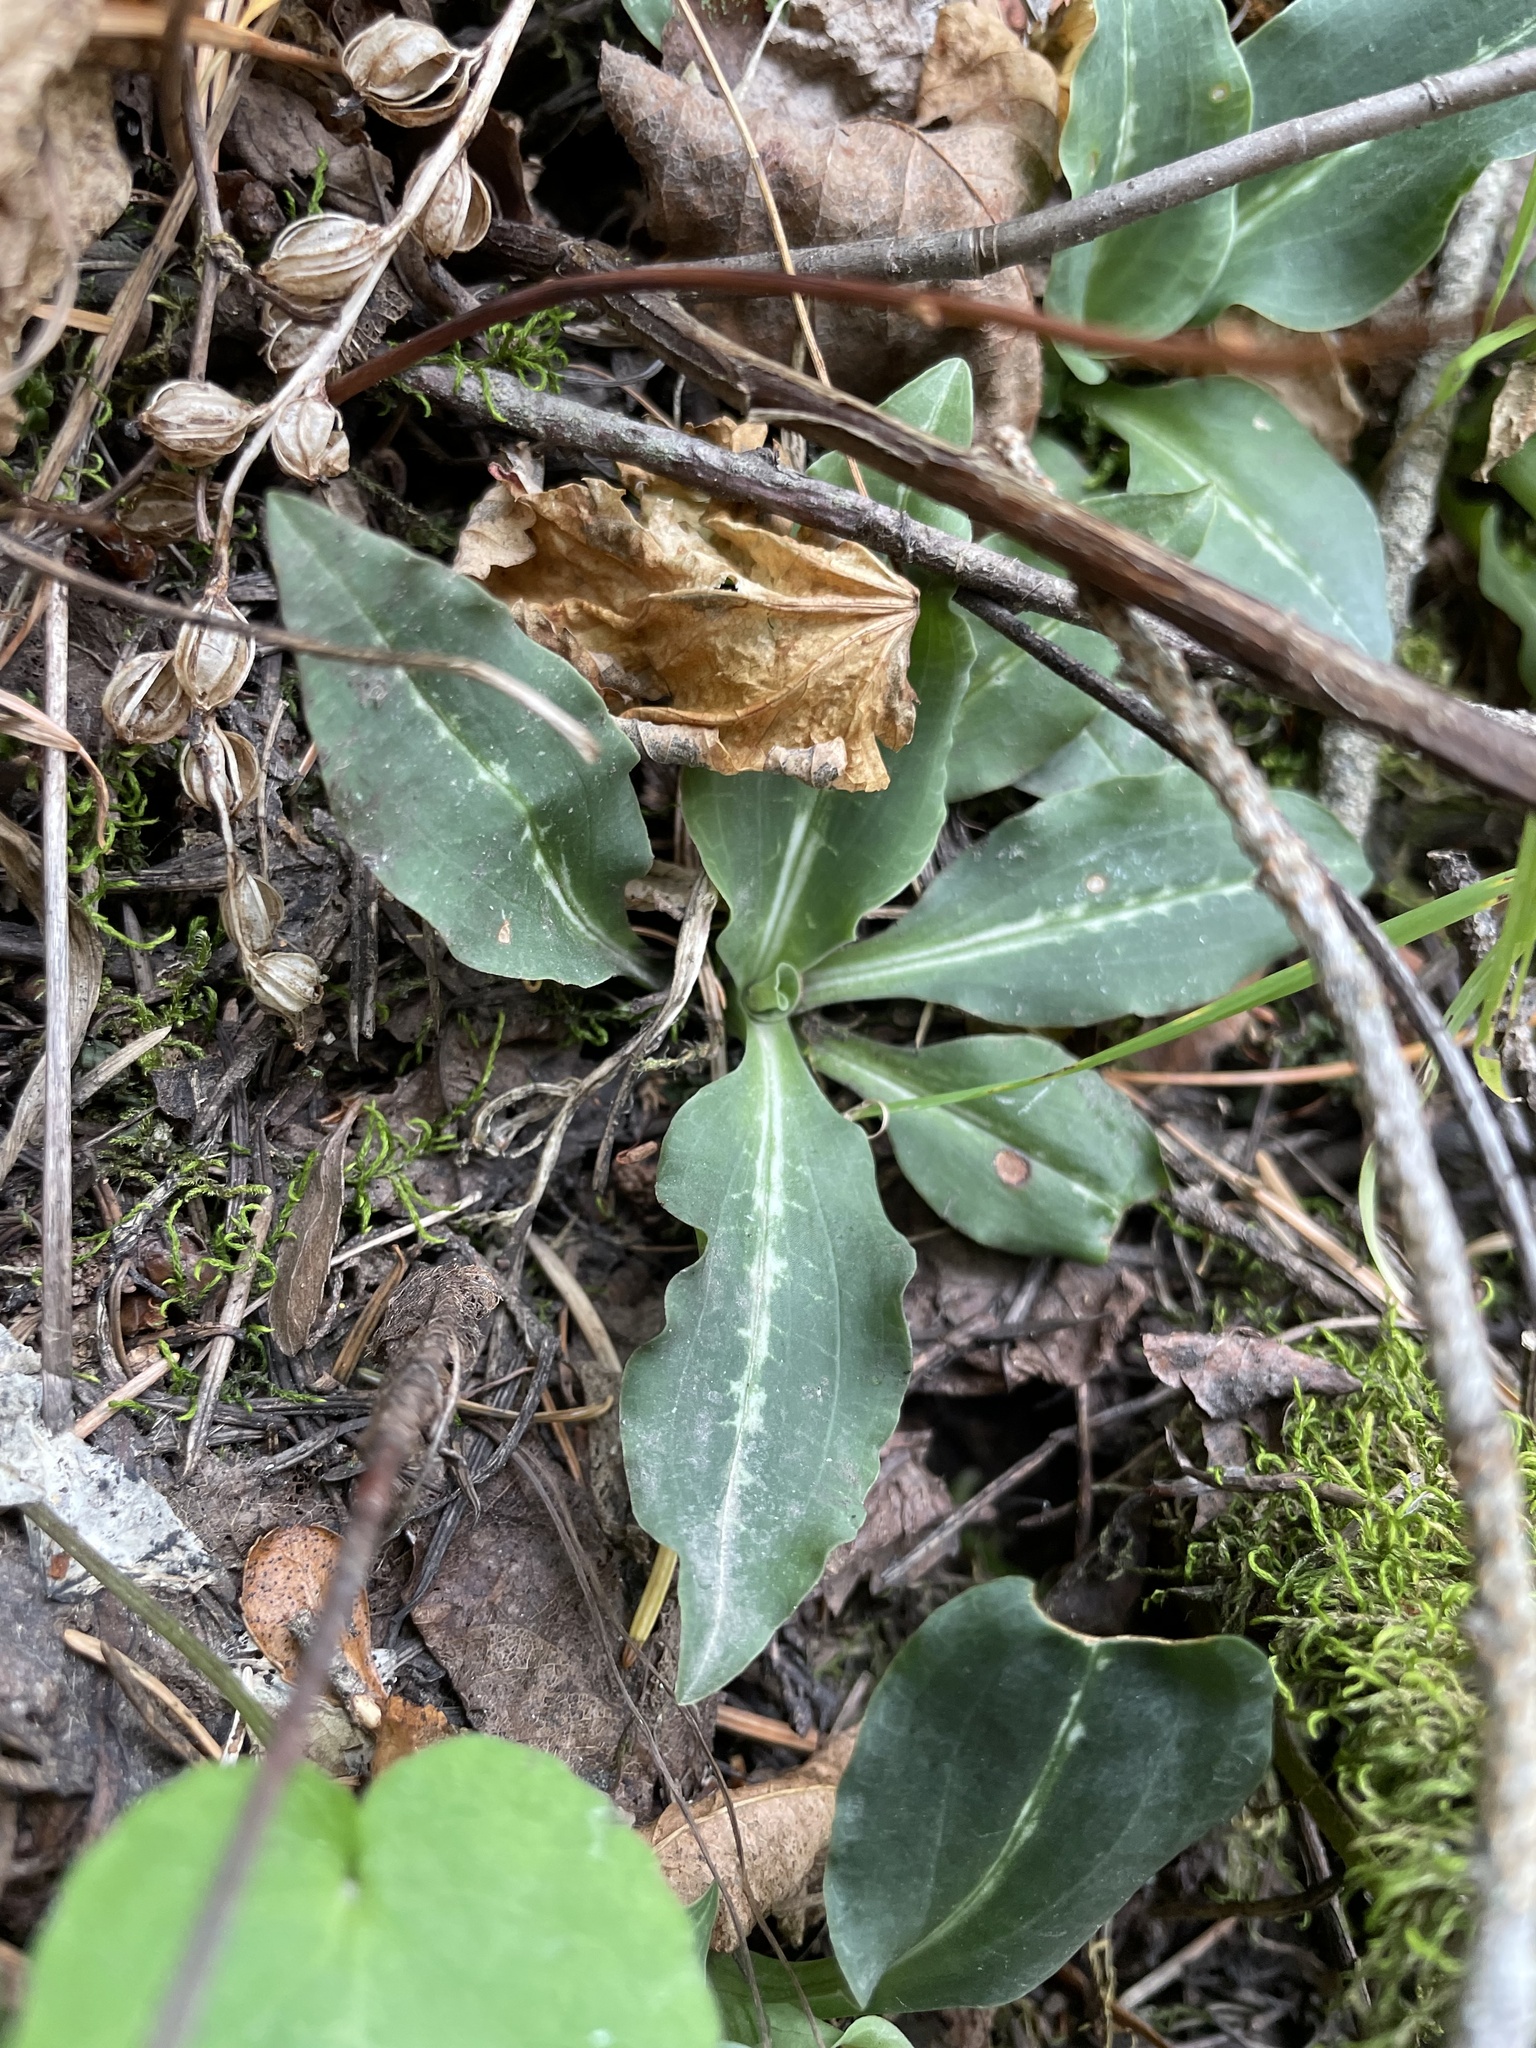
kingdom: Plantae
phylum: Tracheophyta
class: Liliopsida
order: Asparagales
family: Orchidaceae
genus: Goodyera
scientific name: Goodyera oblongifolia
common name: Giant rattlesnake-plantain
